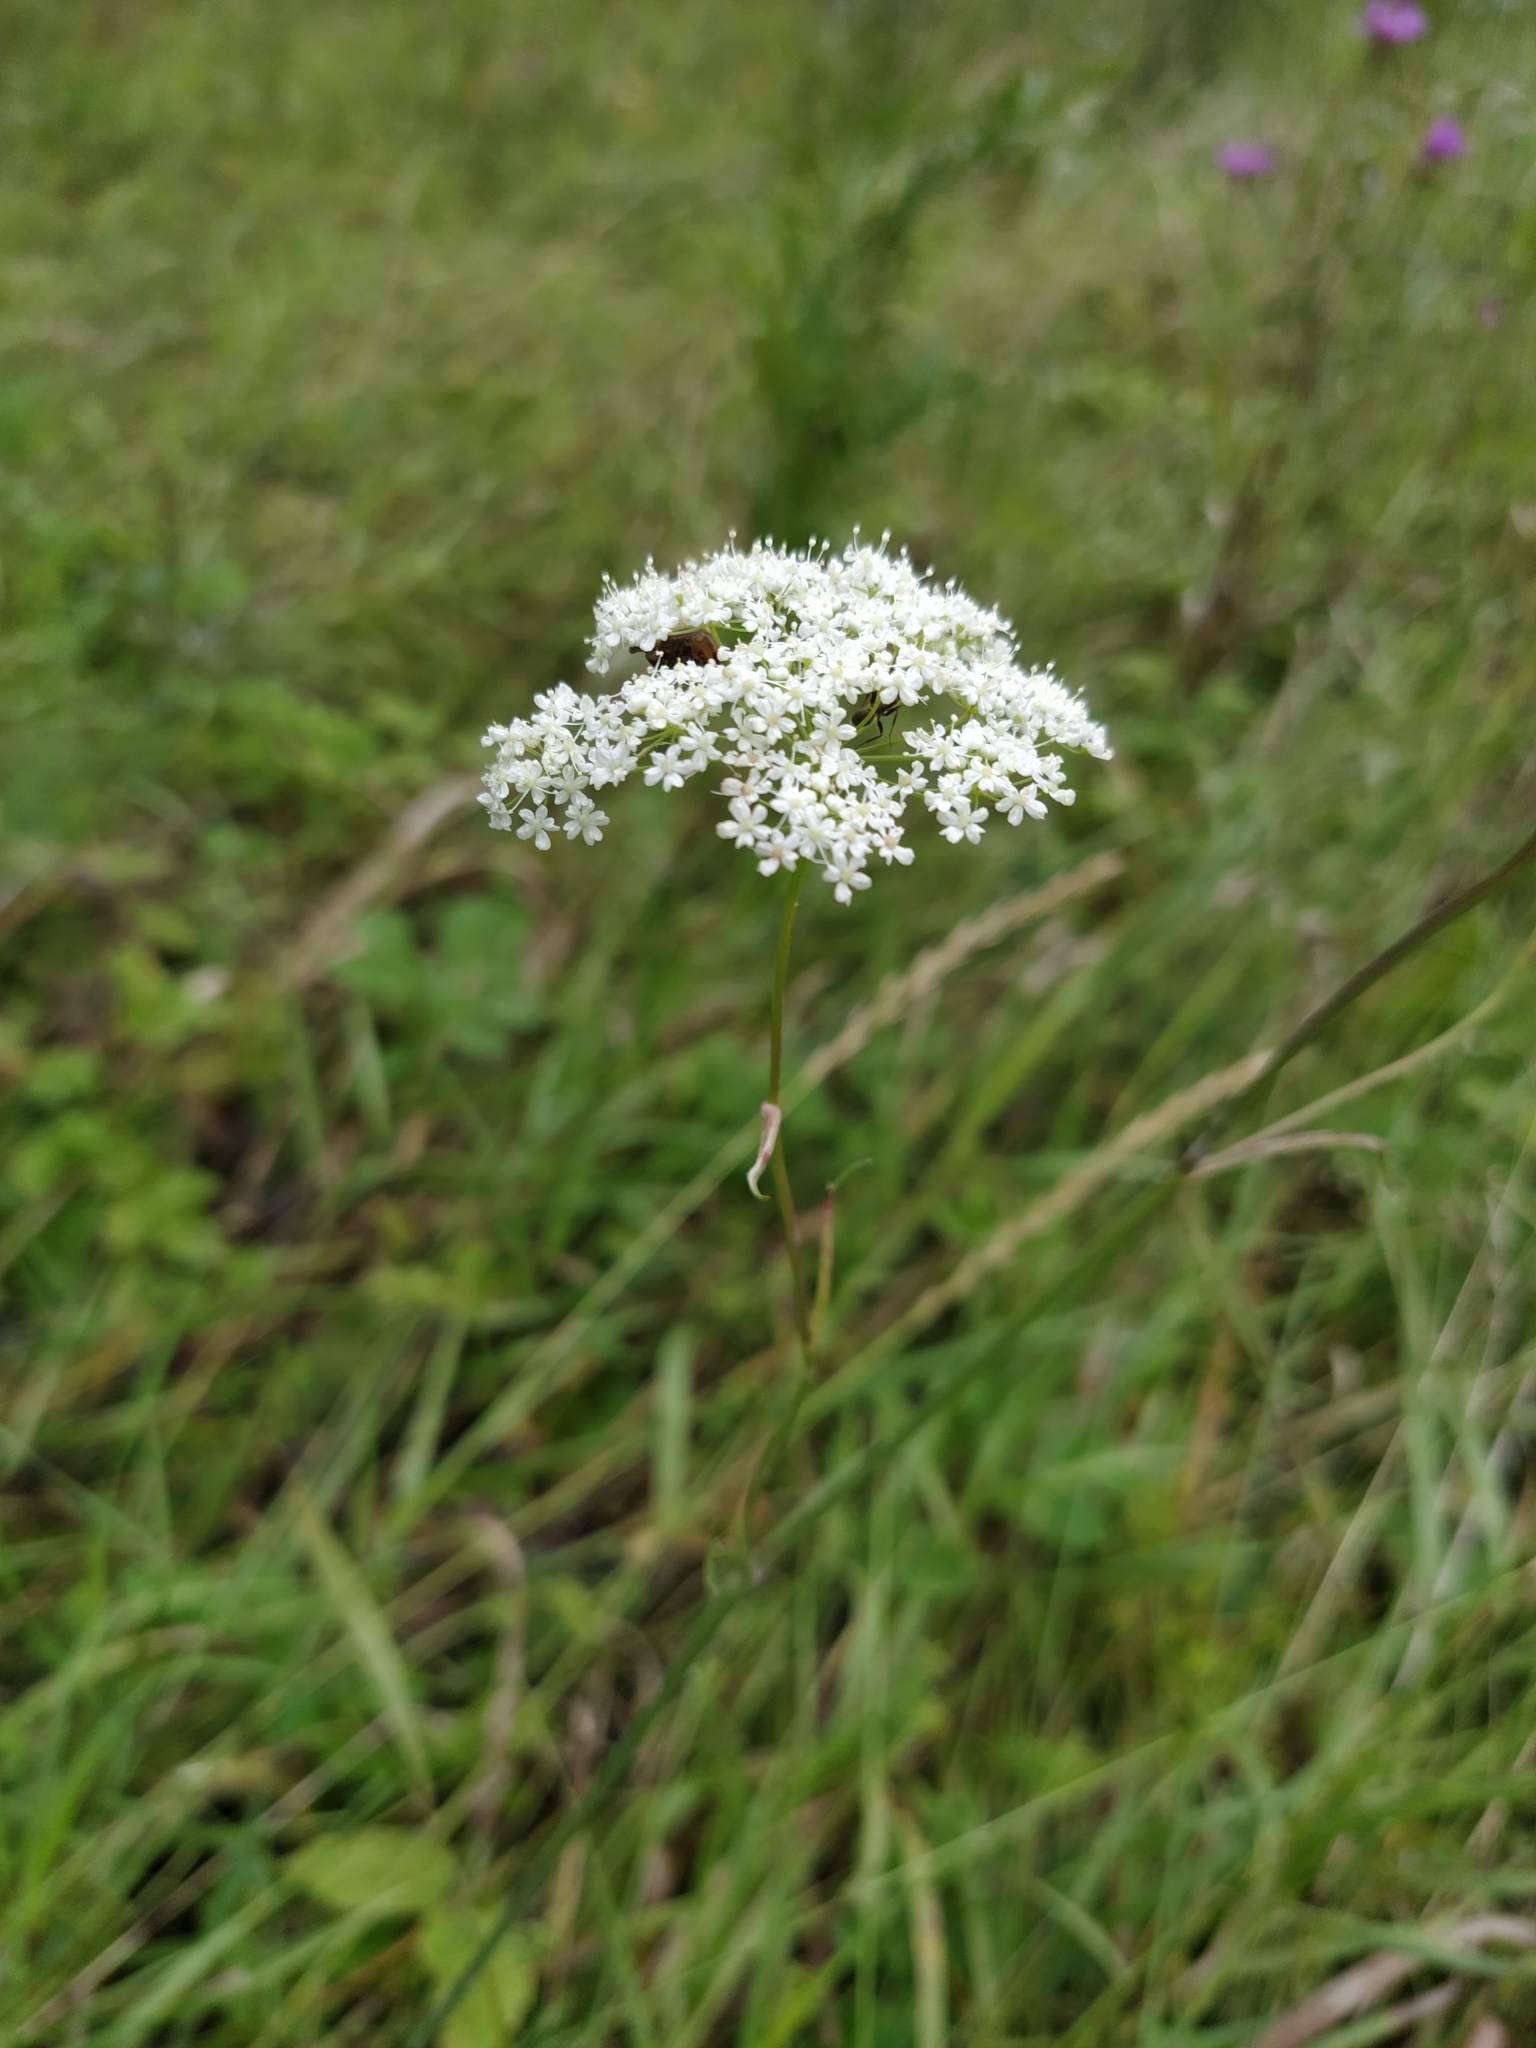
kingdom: Plantae
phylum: Tracheophyta
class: Magnoliopsida
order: Apiales
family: Apiaceae
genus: Pimpinella
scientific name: Pimpinella saxifraga
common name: Burnet-saxifrage
